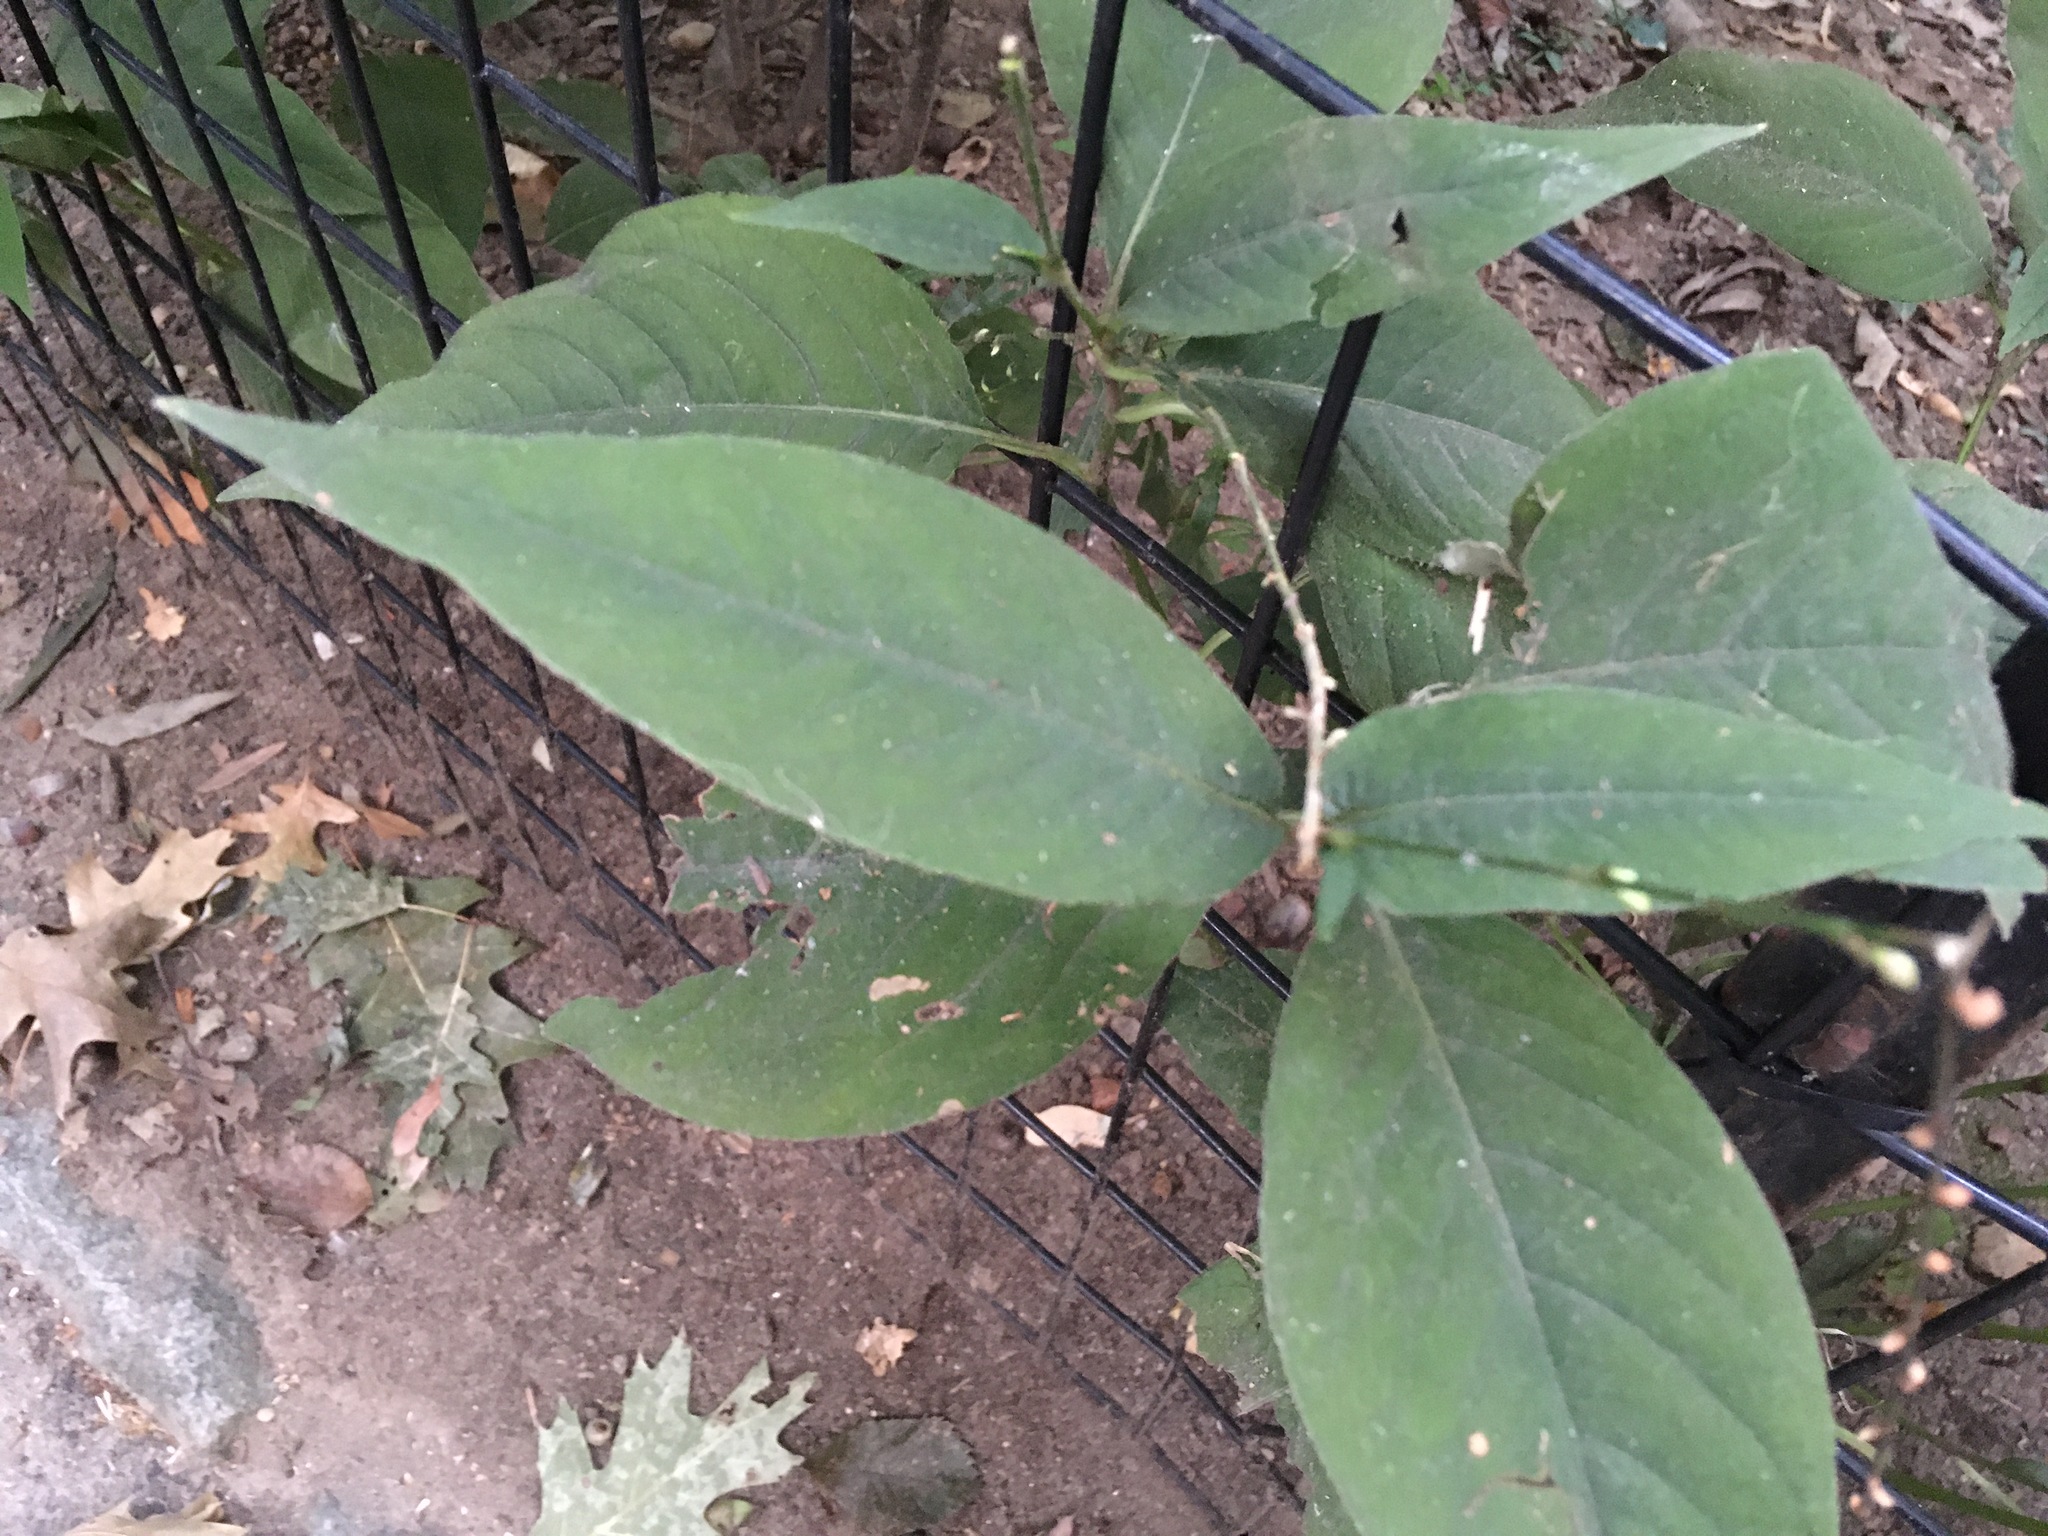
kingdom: Plantae
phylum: Tracheophyta
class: Magnoliopsida
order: Caryophyllales
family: Polygonaceae
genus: Persicaria
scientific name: Persicaria virginiana
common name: Jumpseed
